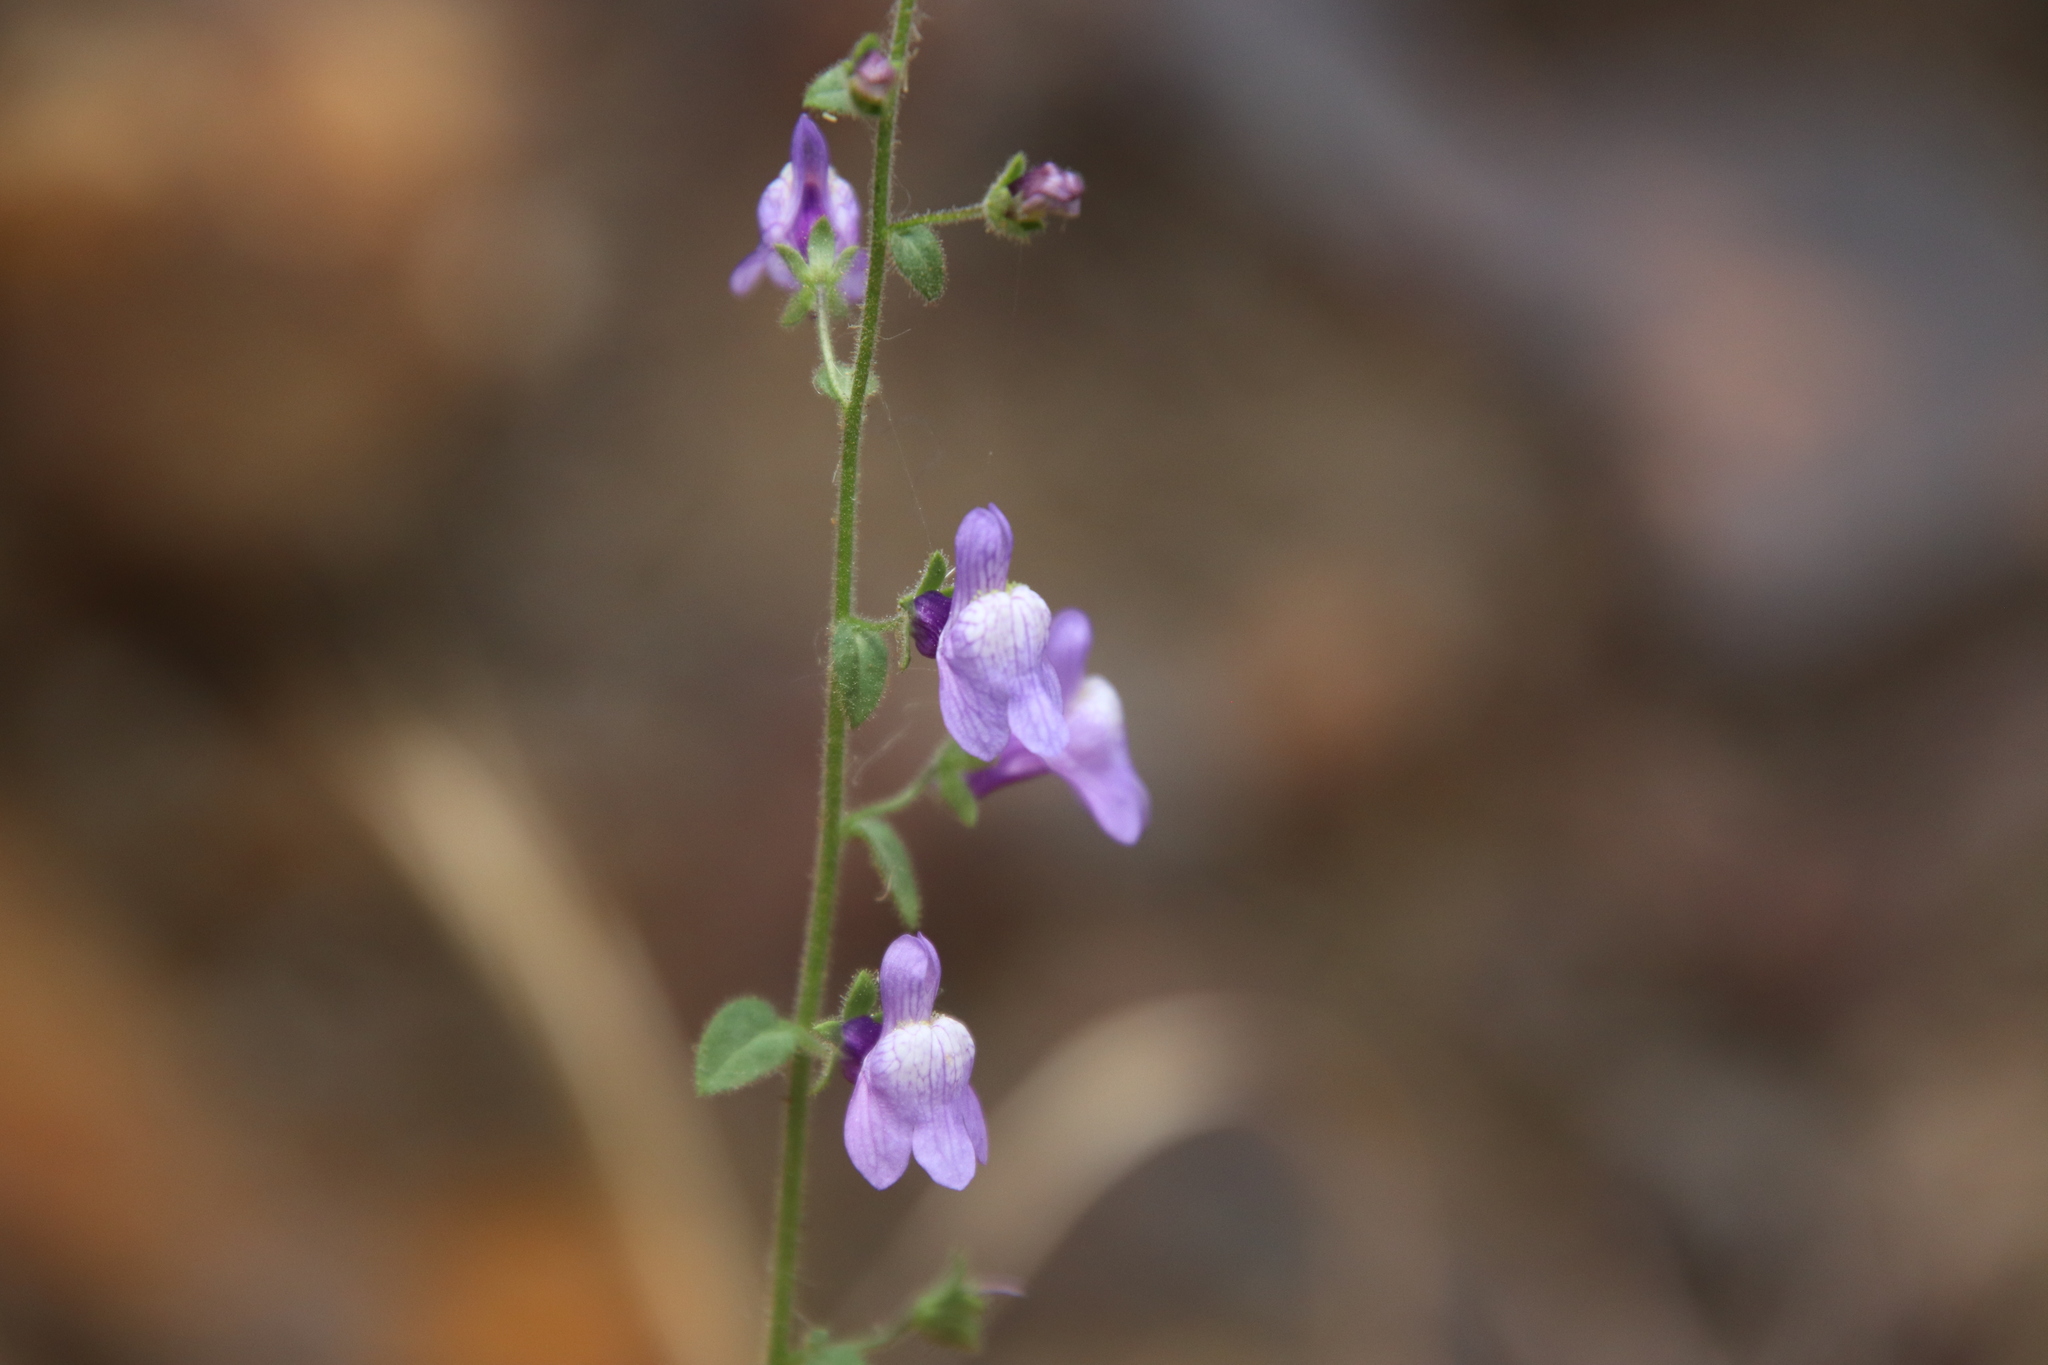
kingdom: Plantae
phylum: Tracheophyta
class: Magnoliopsida
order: Lamiales
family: Plantaginaceae
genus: Sairocarpus
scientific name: Sairocarpus nuttallianus
